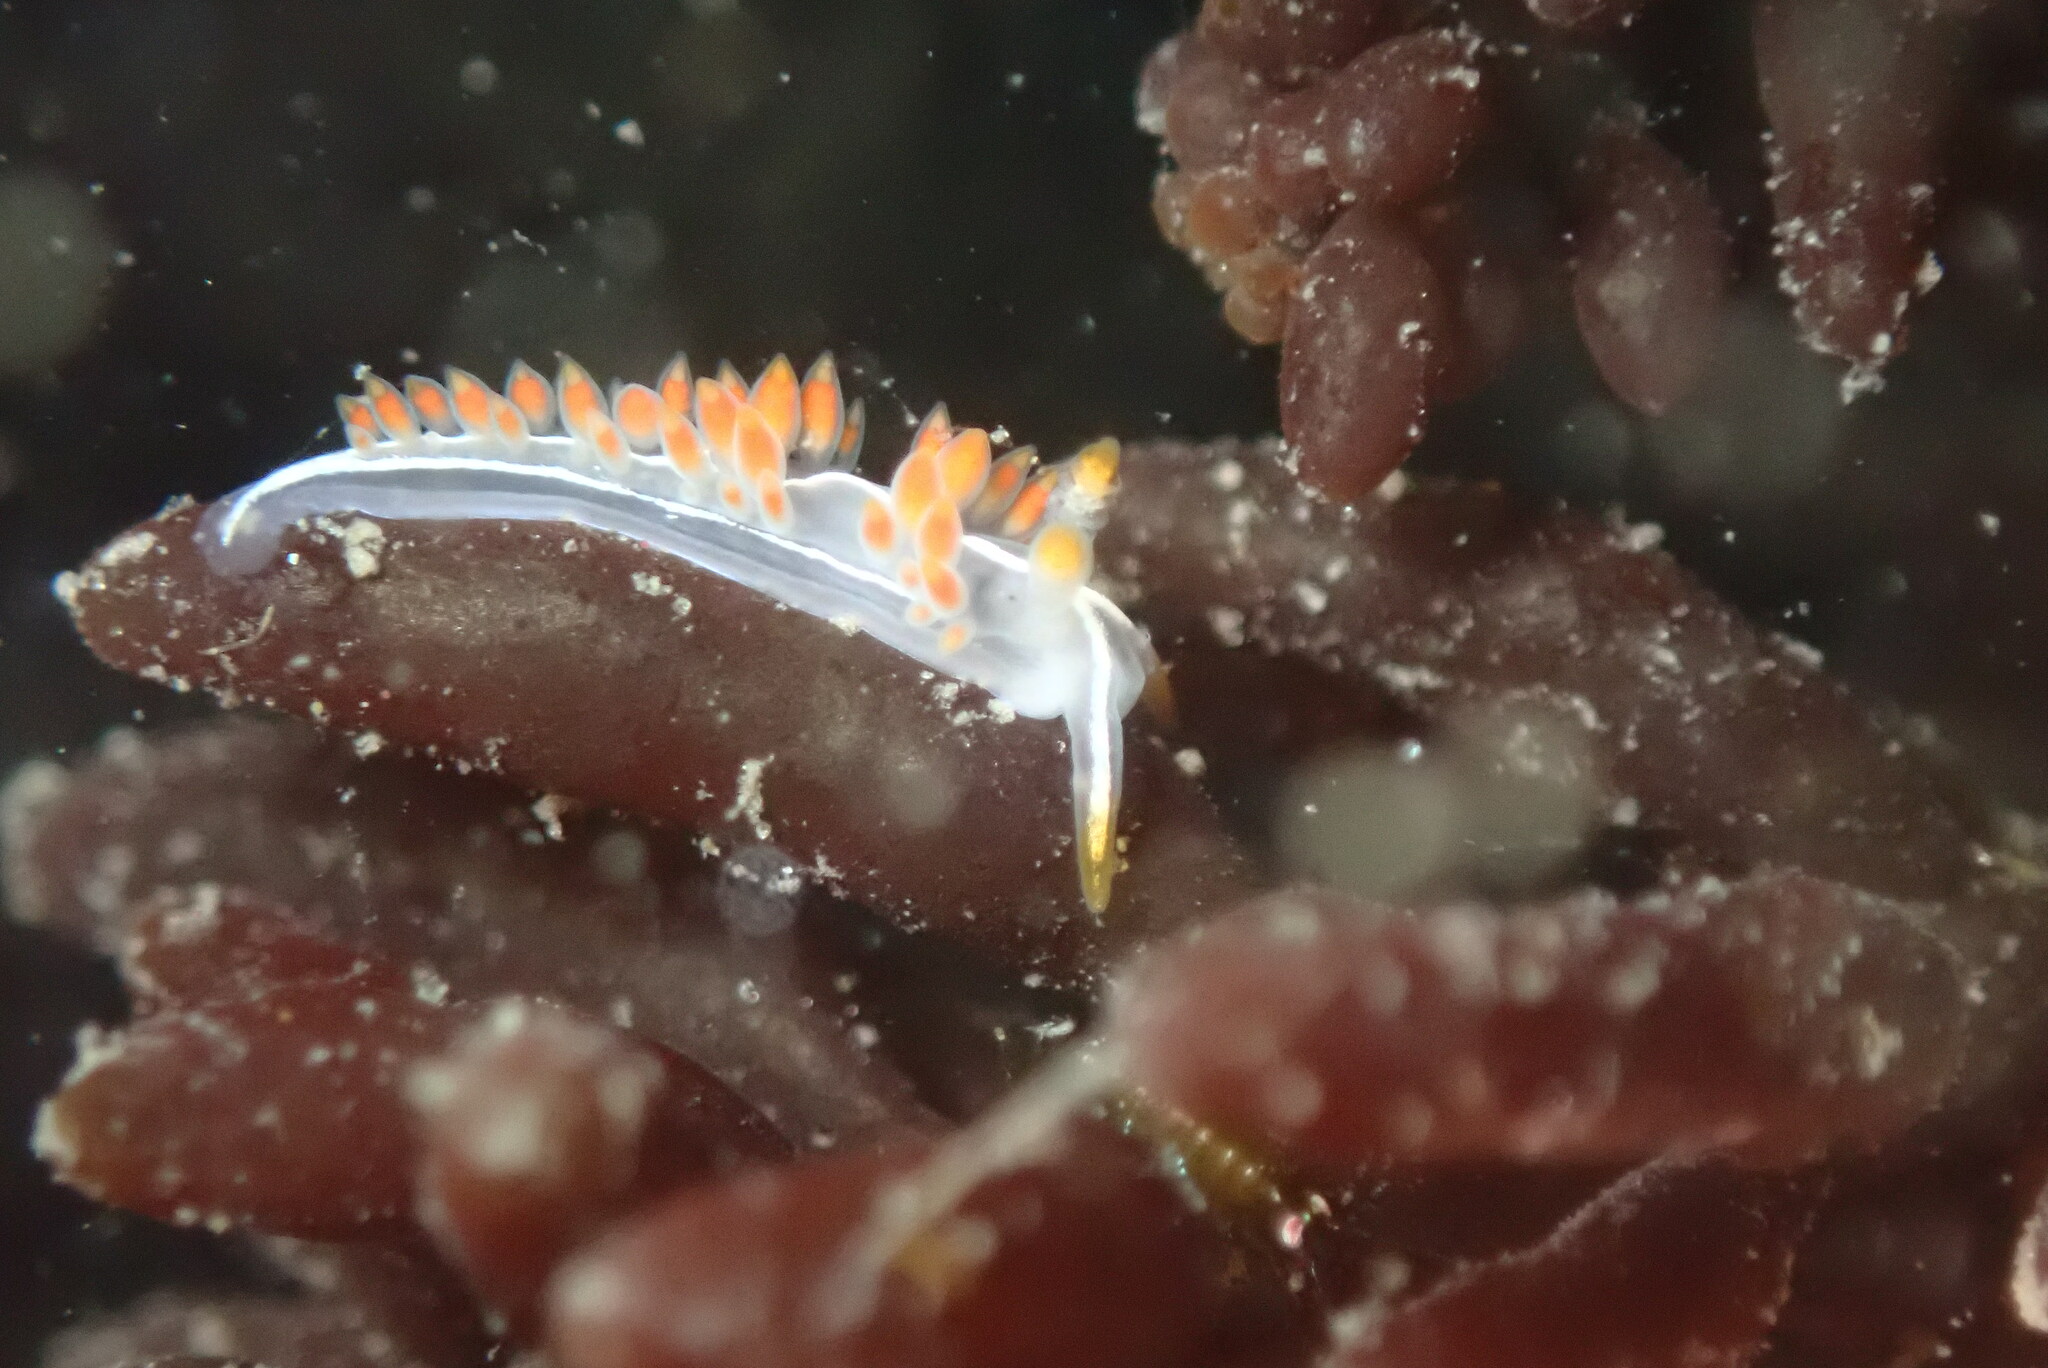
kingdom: Animalia
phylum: Mollusca
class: Gastropoda
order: Nudibranchia
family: Coryphellidae
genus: Coryphella
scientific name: Coryphella trilineata
